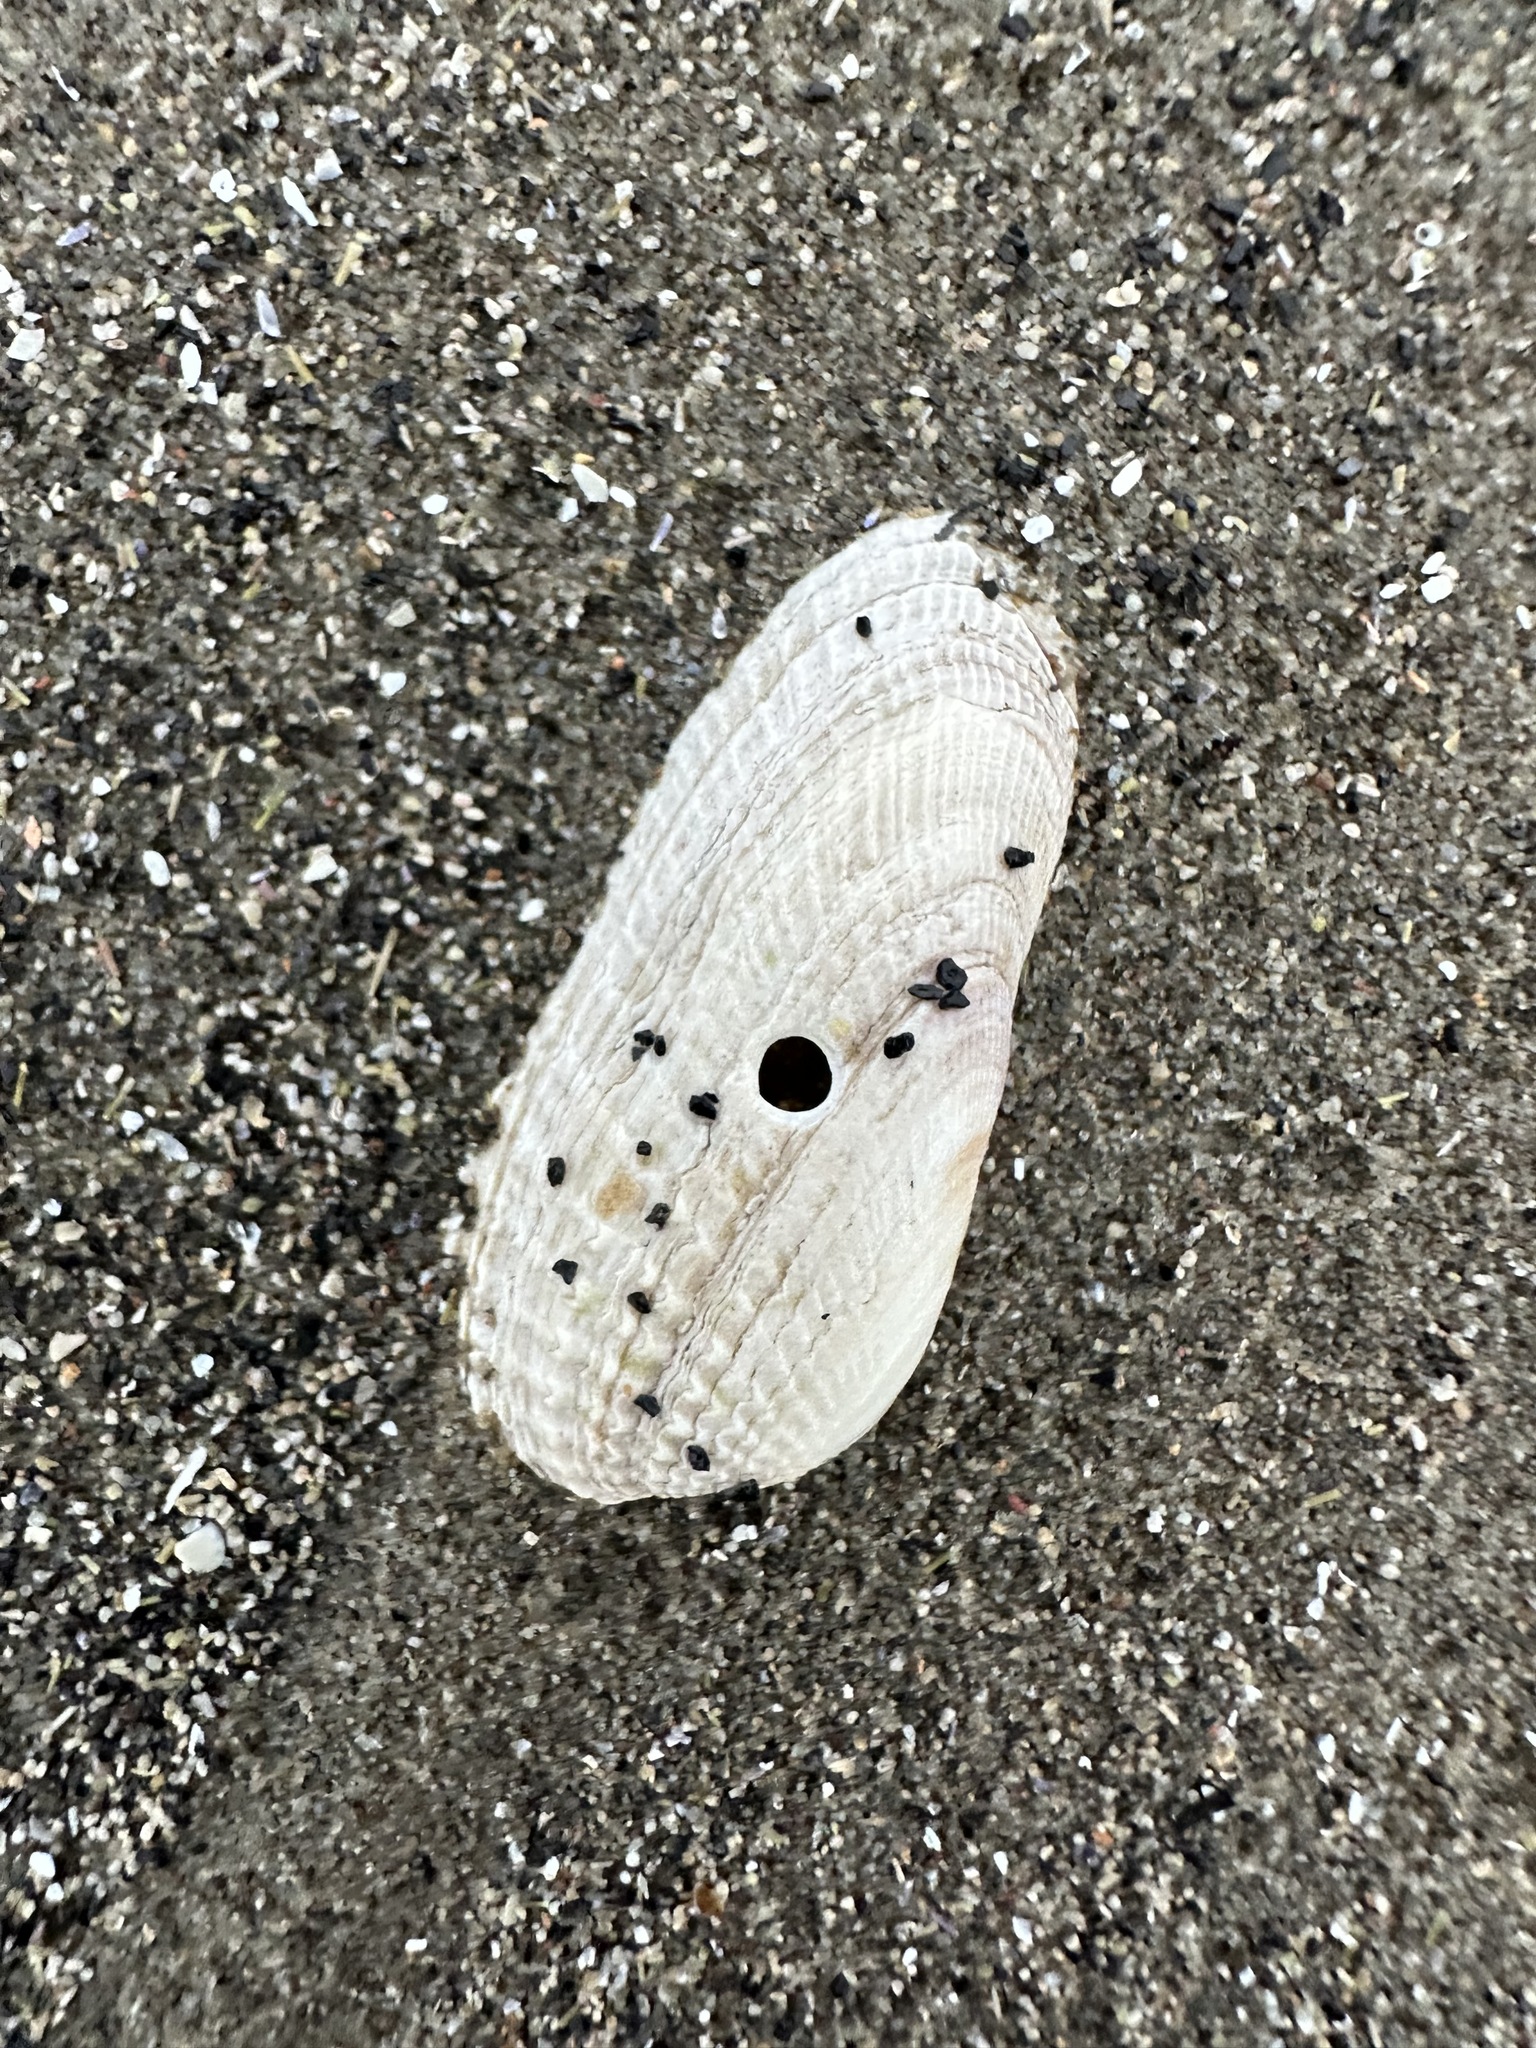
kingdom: Animalia
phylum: Mollusca
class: Bivalvia
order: Venerida
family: Veneridae
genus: Petricolaria
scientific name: Petricolaria pholadiformis
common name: American piddock
